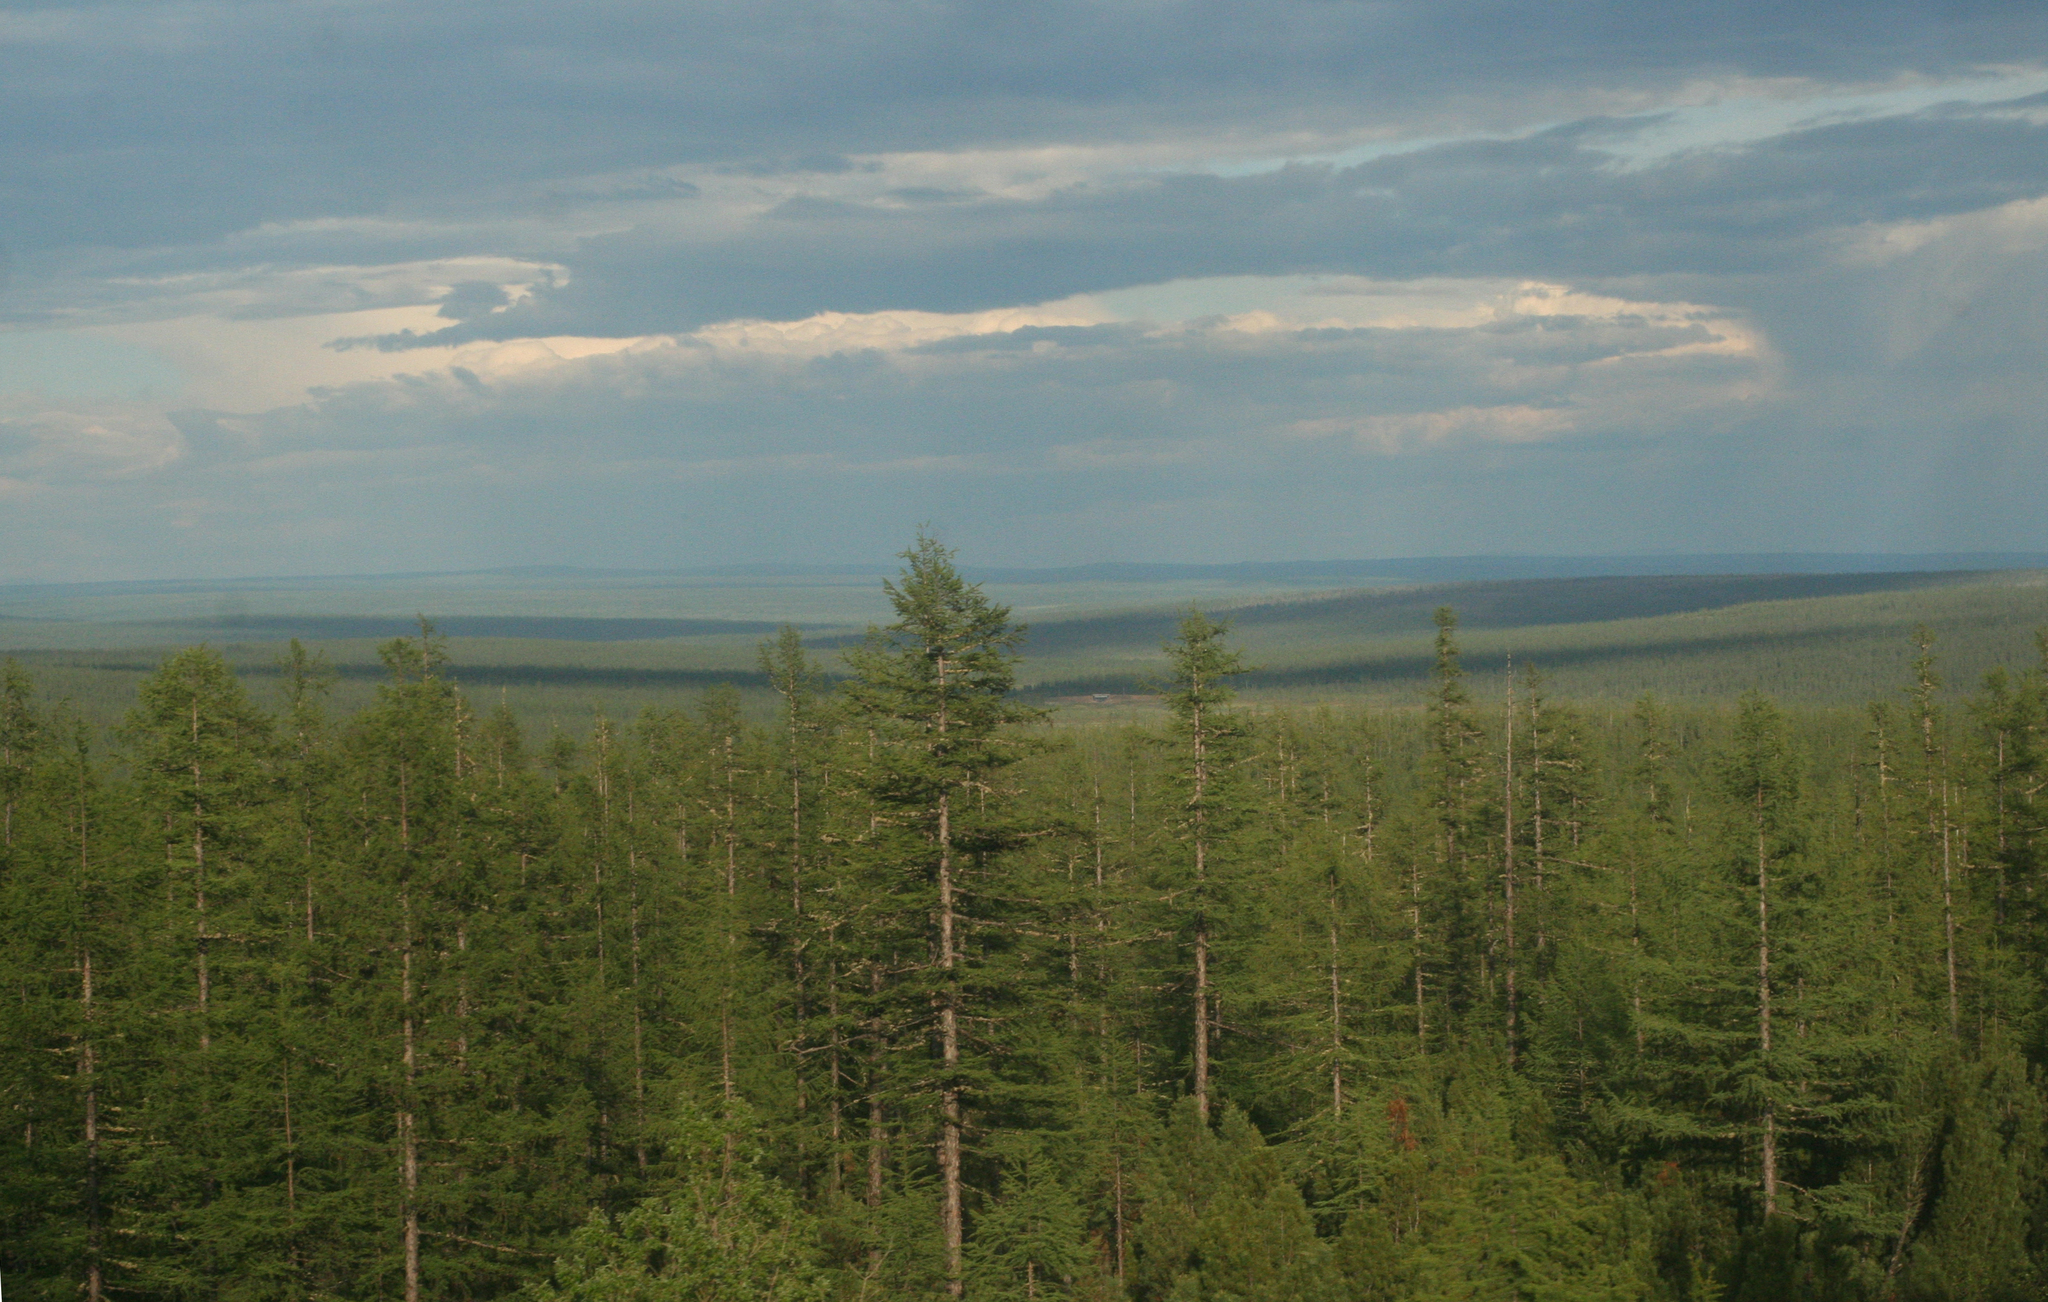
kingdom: Plantae
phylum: Tracheophyta
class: Pinopsida
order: Pinales
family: Pinaceae
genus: Larix
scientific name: Larix gmelinii
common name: Dahurian larch
